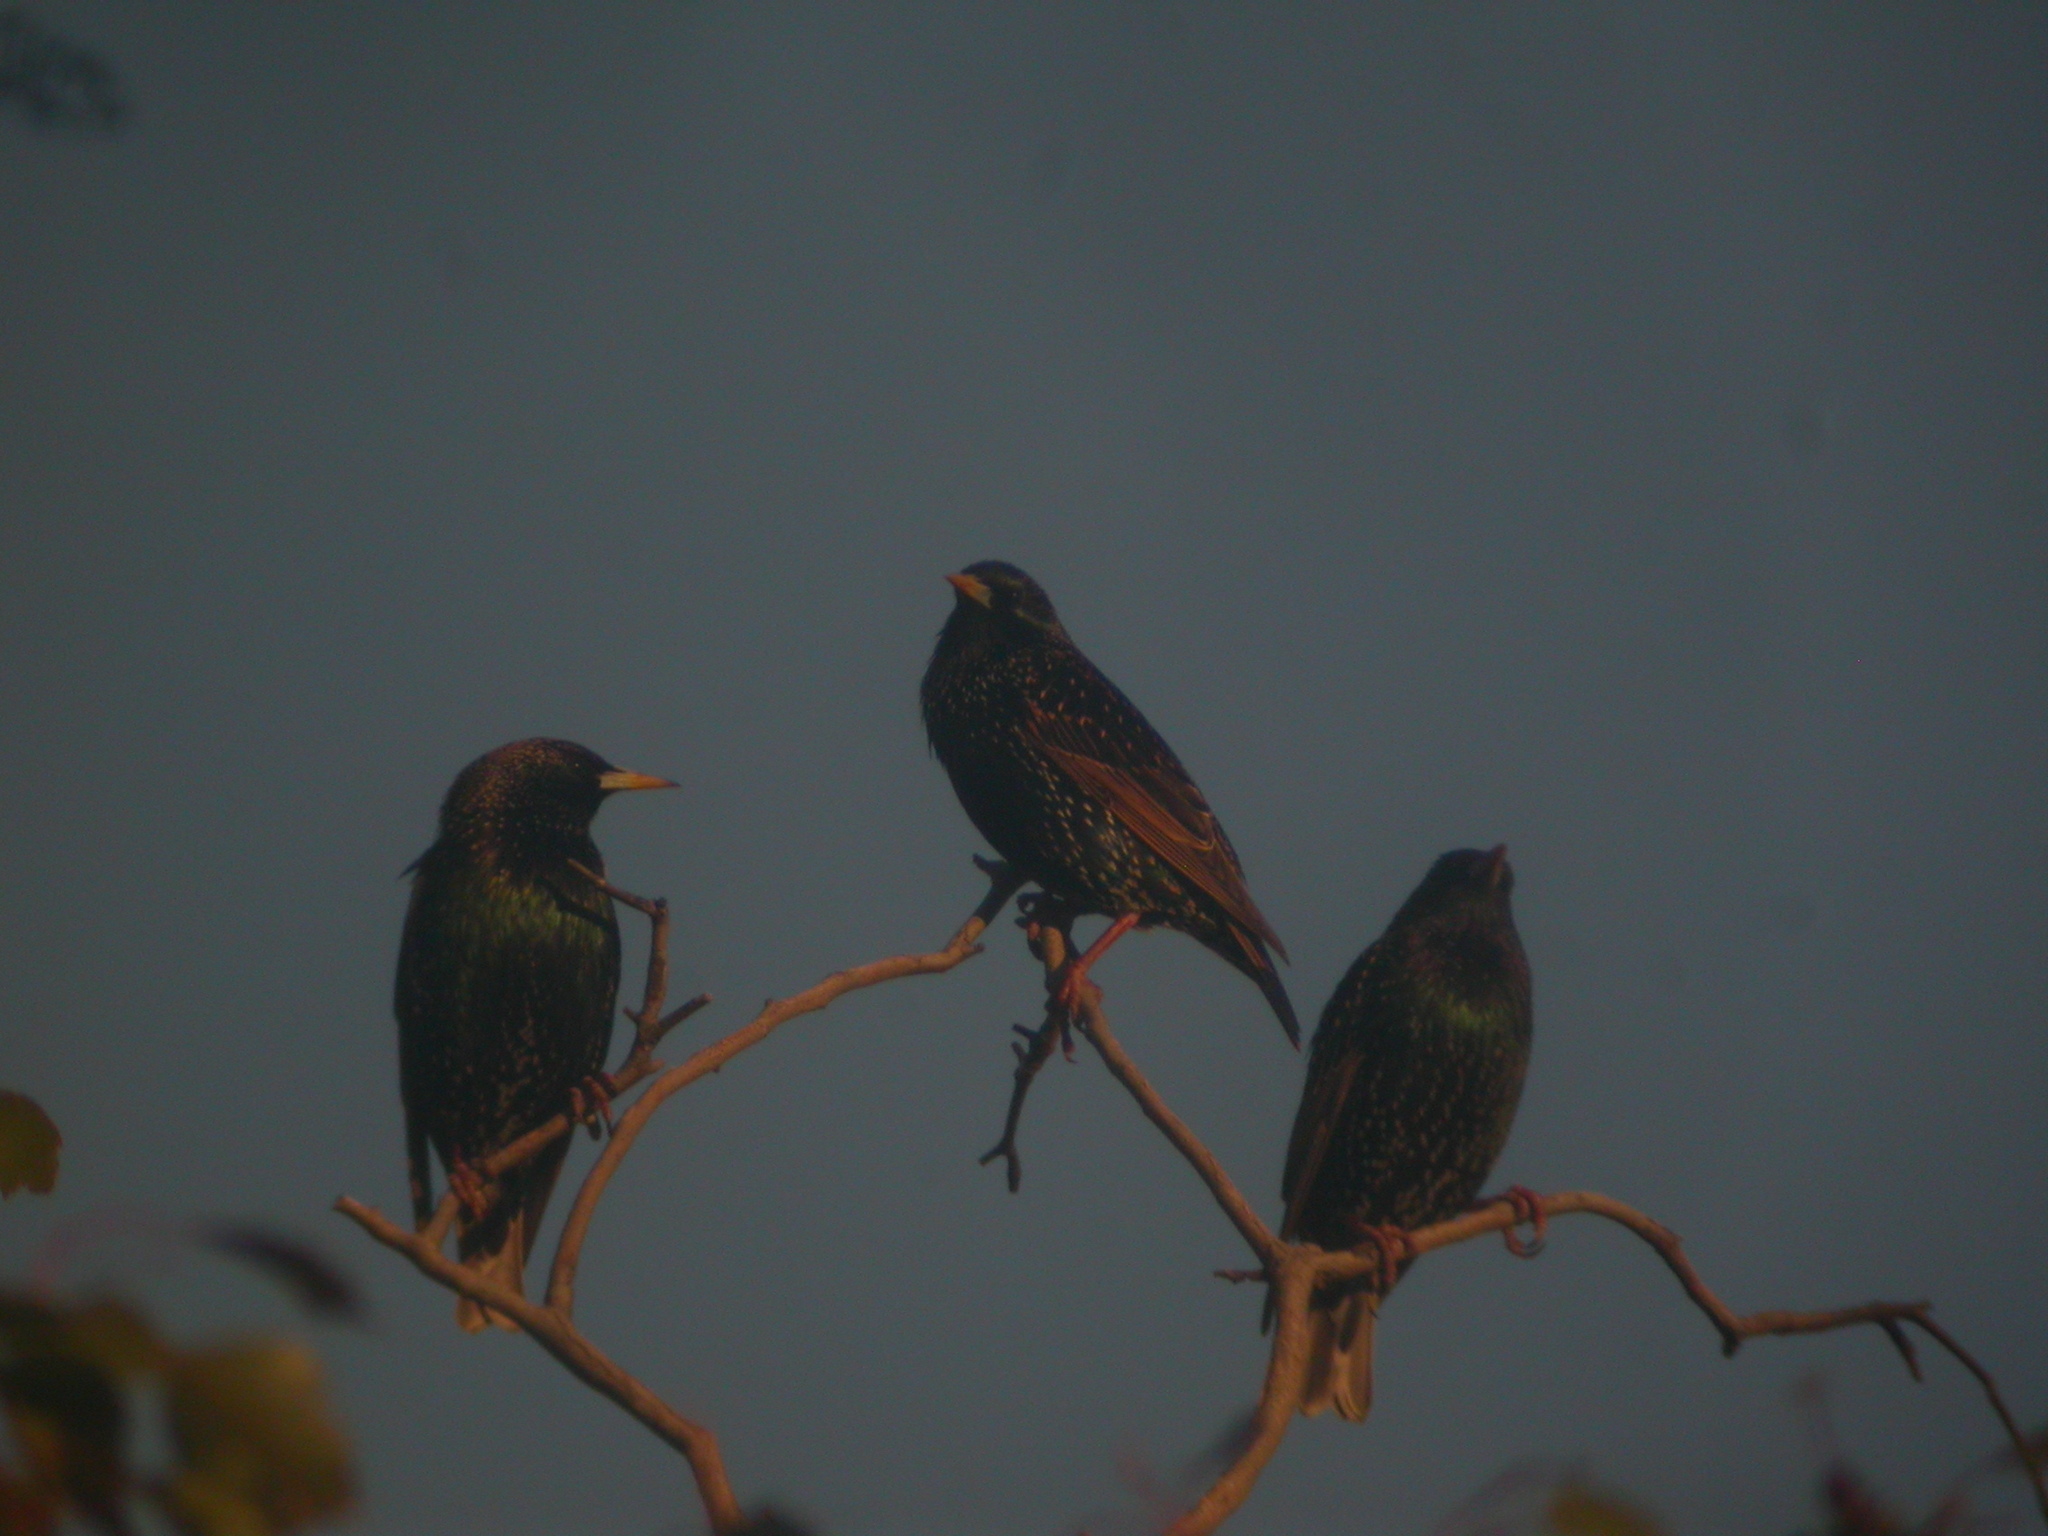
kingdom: Animalia
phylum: Chordata
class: Aves
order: Passeriformes
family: Sturnidae
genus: Sturnus
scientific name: Sturnus vulgaris
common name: Common starling
